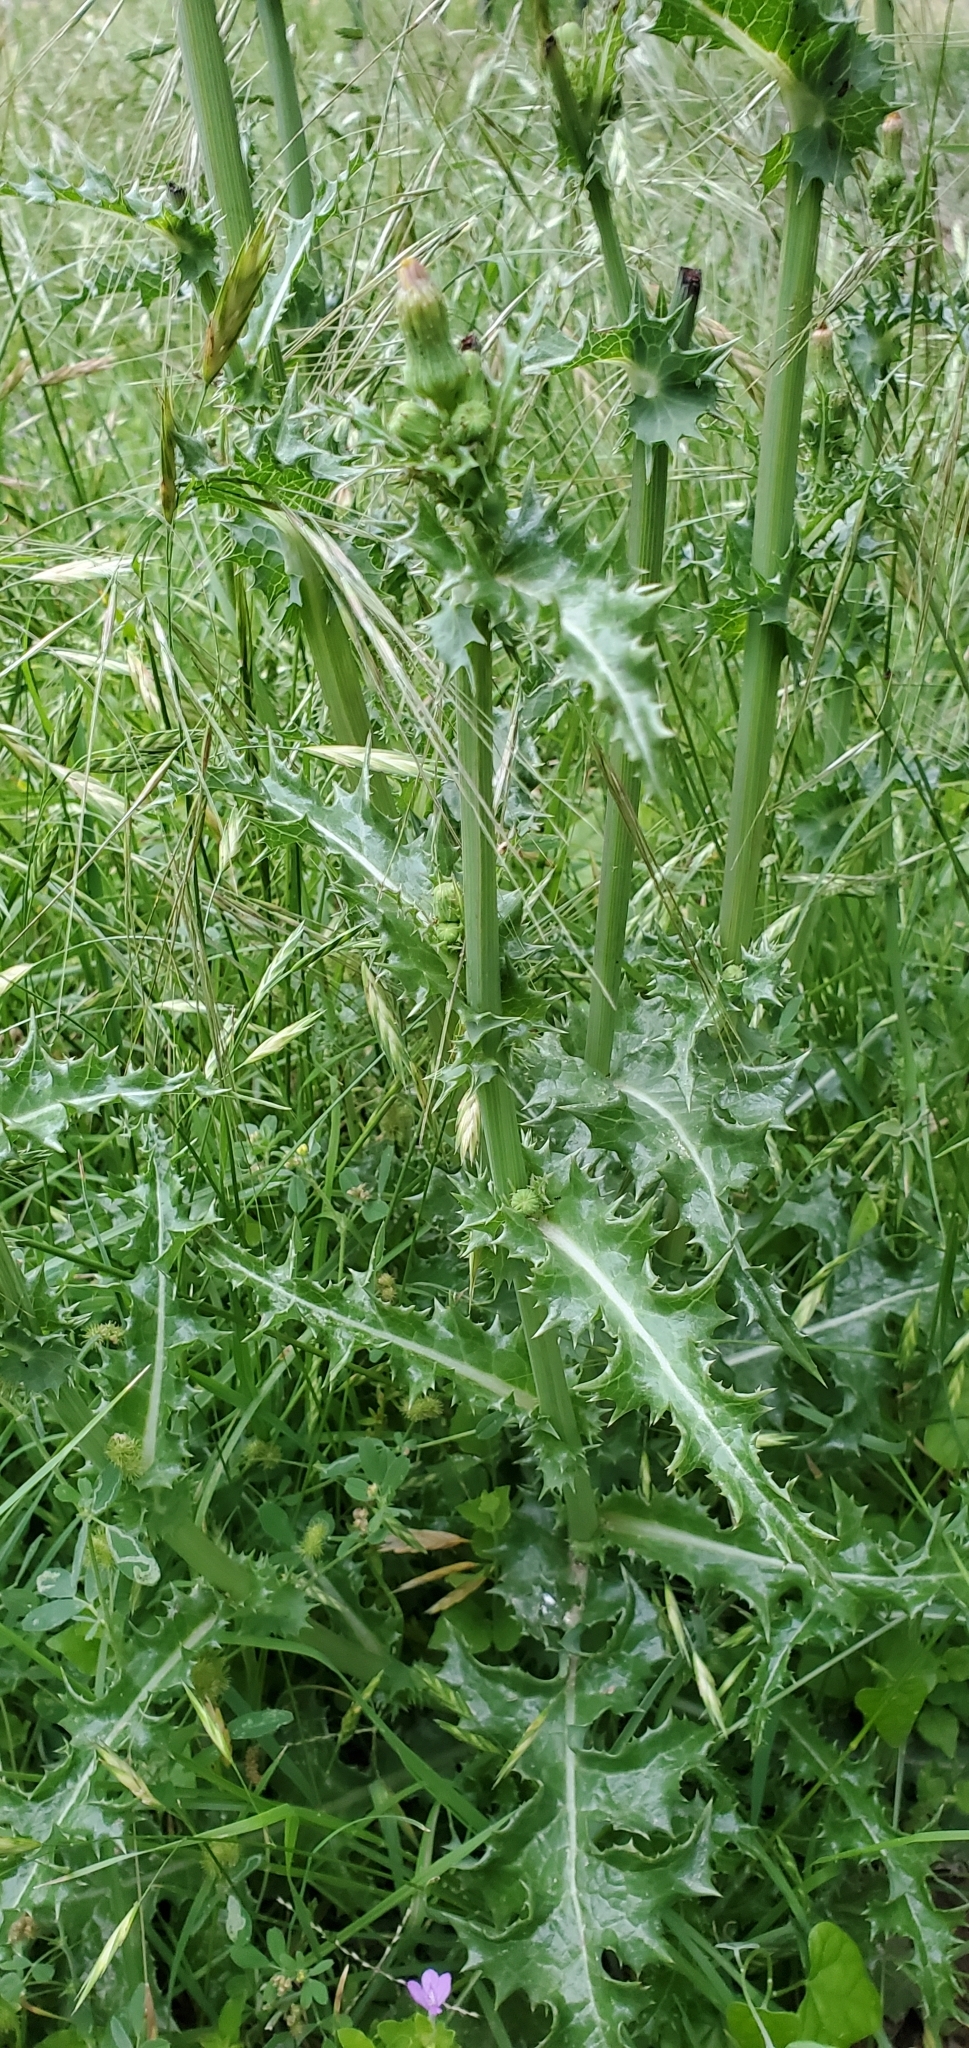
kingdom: Plantae
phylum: Tracheophyta
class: Magnoliopsida
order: Asterales
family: Asteraceae
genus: Sonchus
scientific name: Sonchus asper
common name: Prickly sow-thistle
